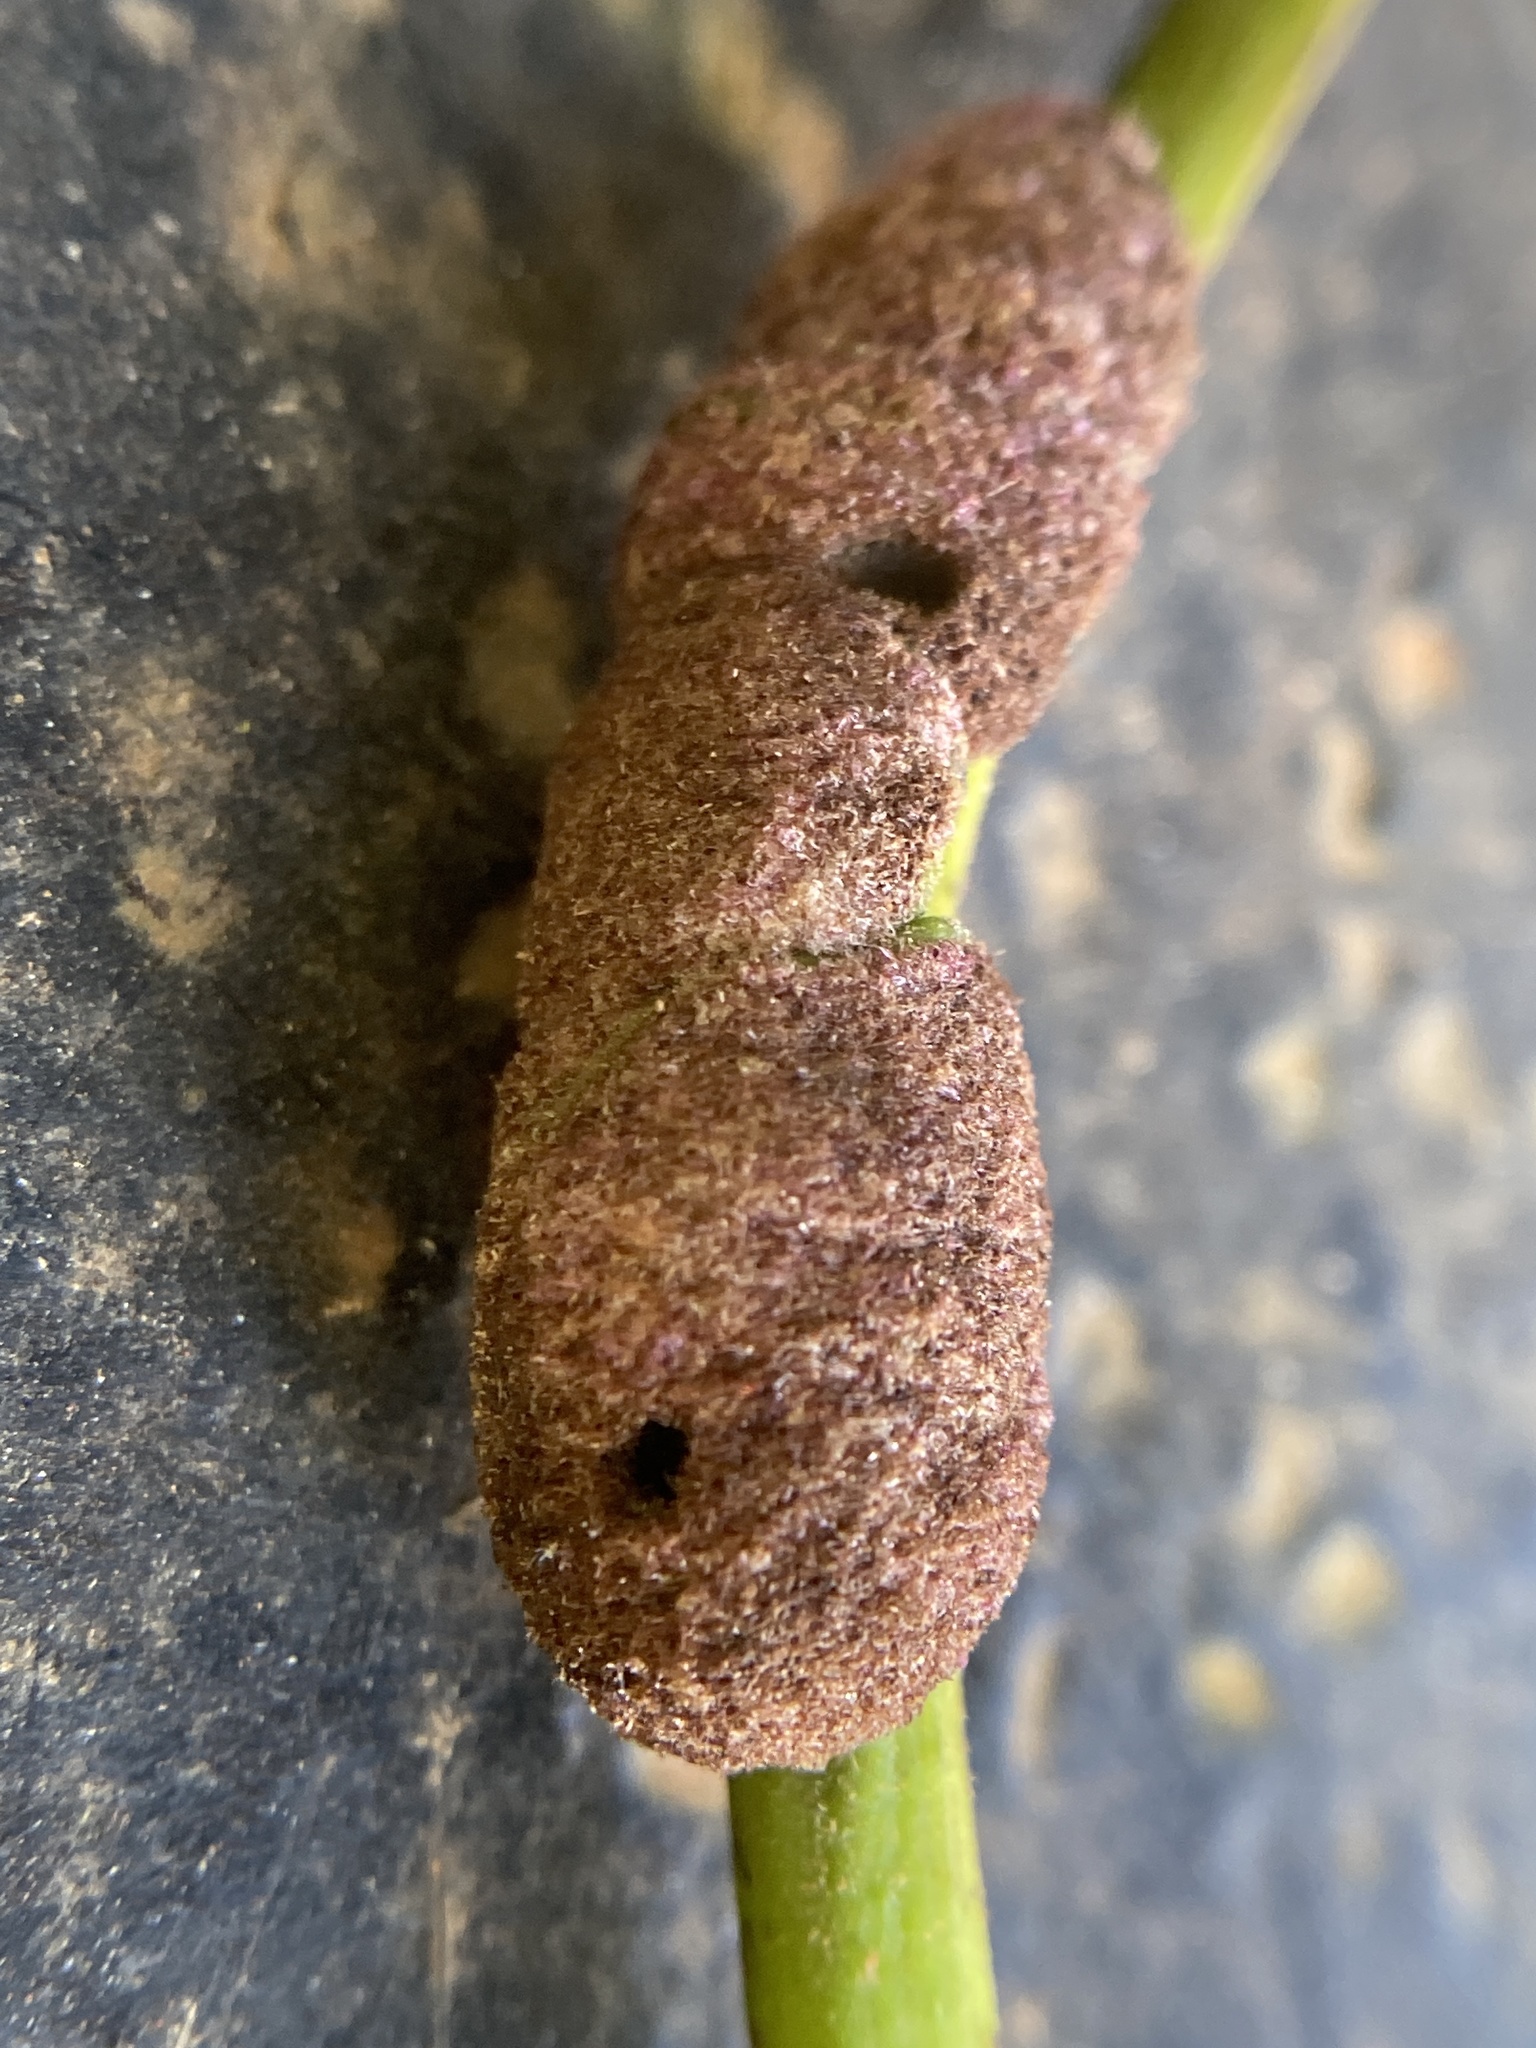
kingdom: Animalia
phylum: Arthropoda
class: Arachnida
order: Trombidiformes
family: Eriophyidae
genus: Aceria
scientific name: Aceria
